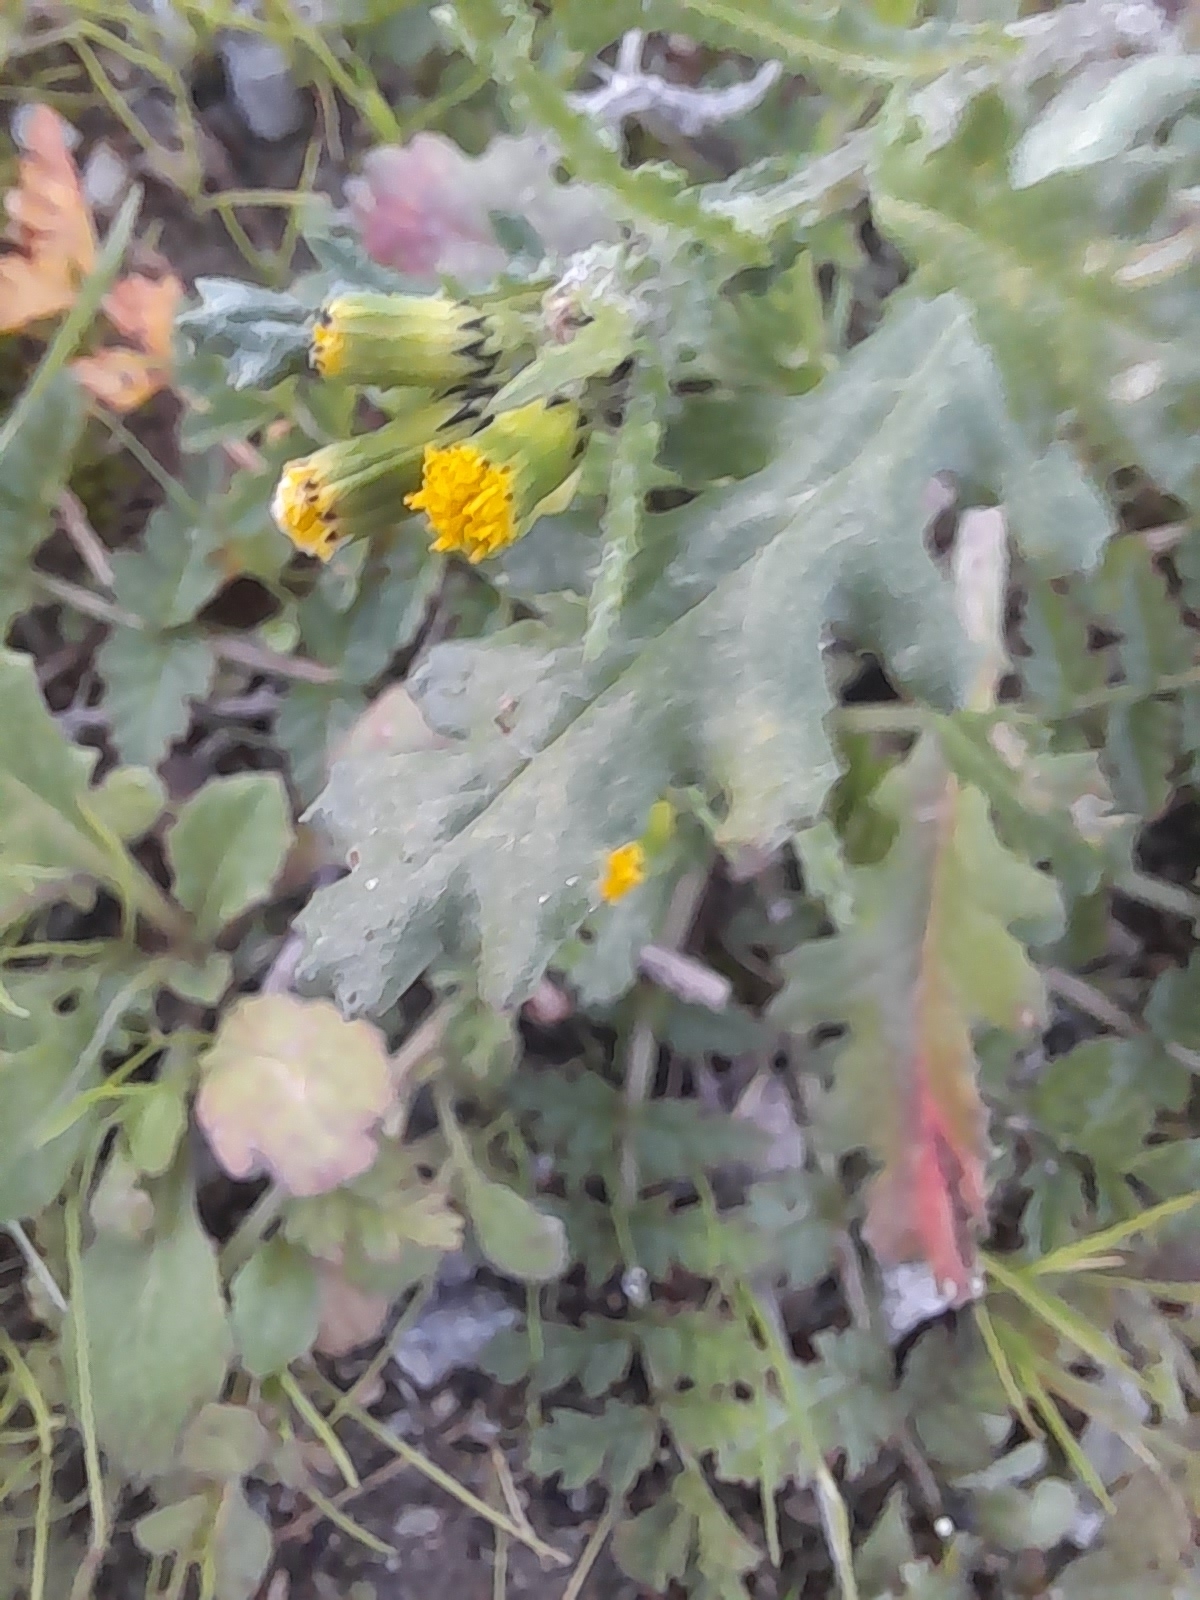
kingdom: Plantae
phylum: Tracheophyta
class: Magnoliopsida
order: Asterales
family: Asteraceae
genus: Senecio
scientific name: Senecio vulgaris
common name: Old-man-in-the-spring
